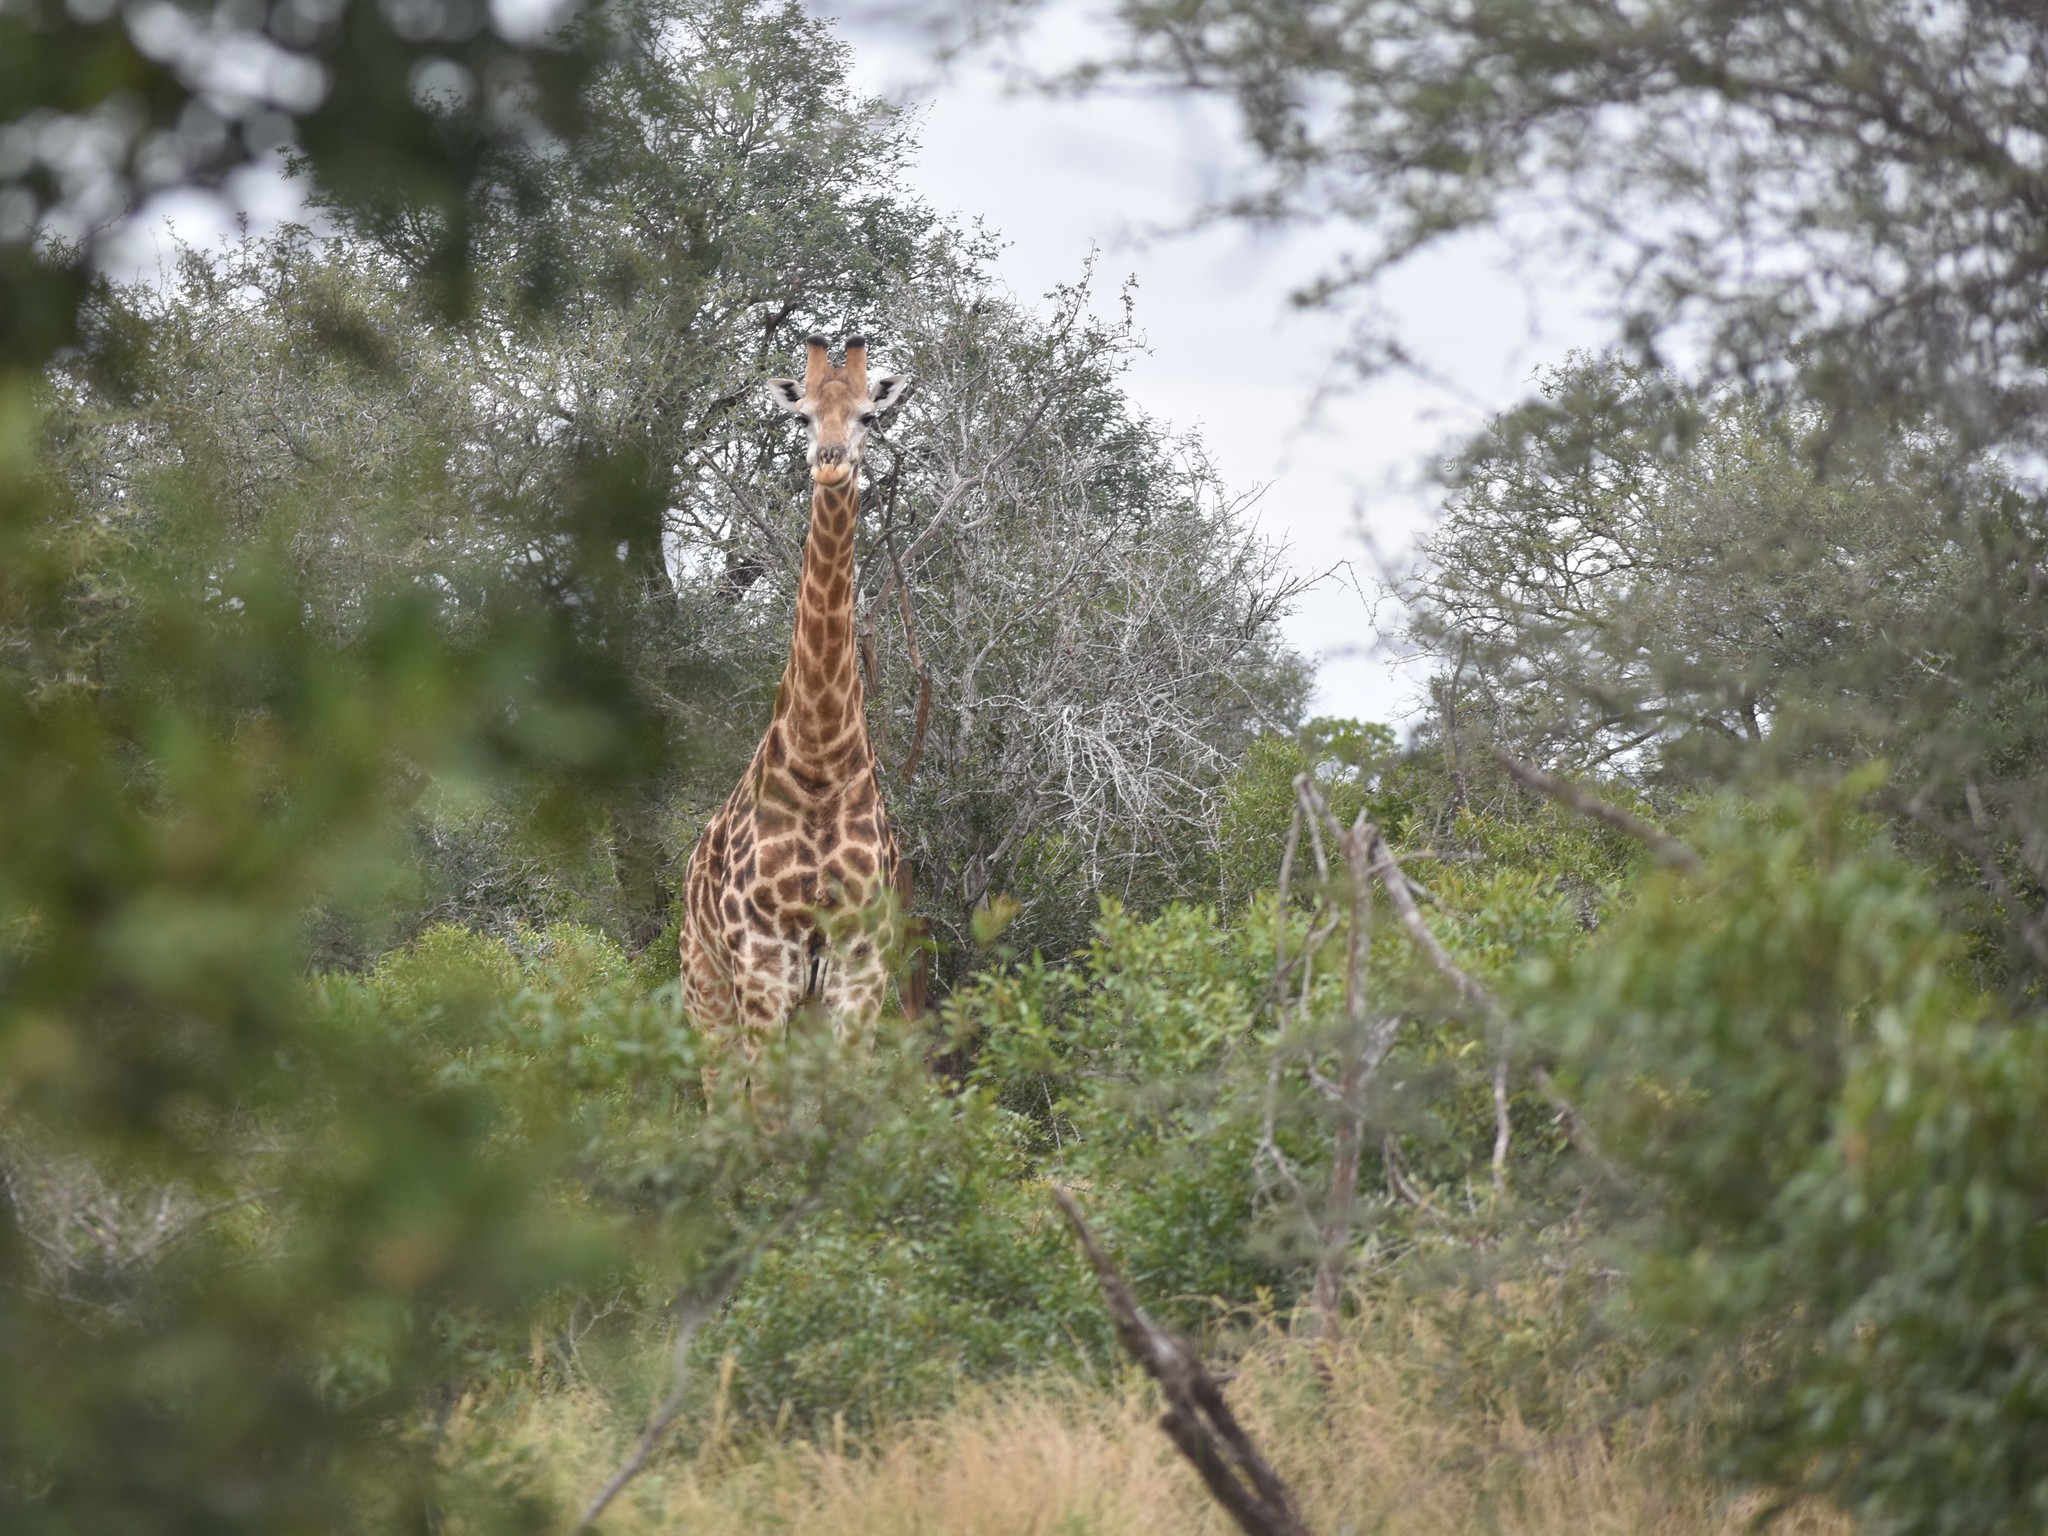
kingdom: Animalia
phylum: Chordata
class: Mammalia
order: Artiodactyla
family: Giraffidae
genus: Giraffa
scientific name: Giraffa giraffa
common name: Southern giraffe
